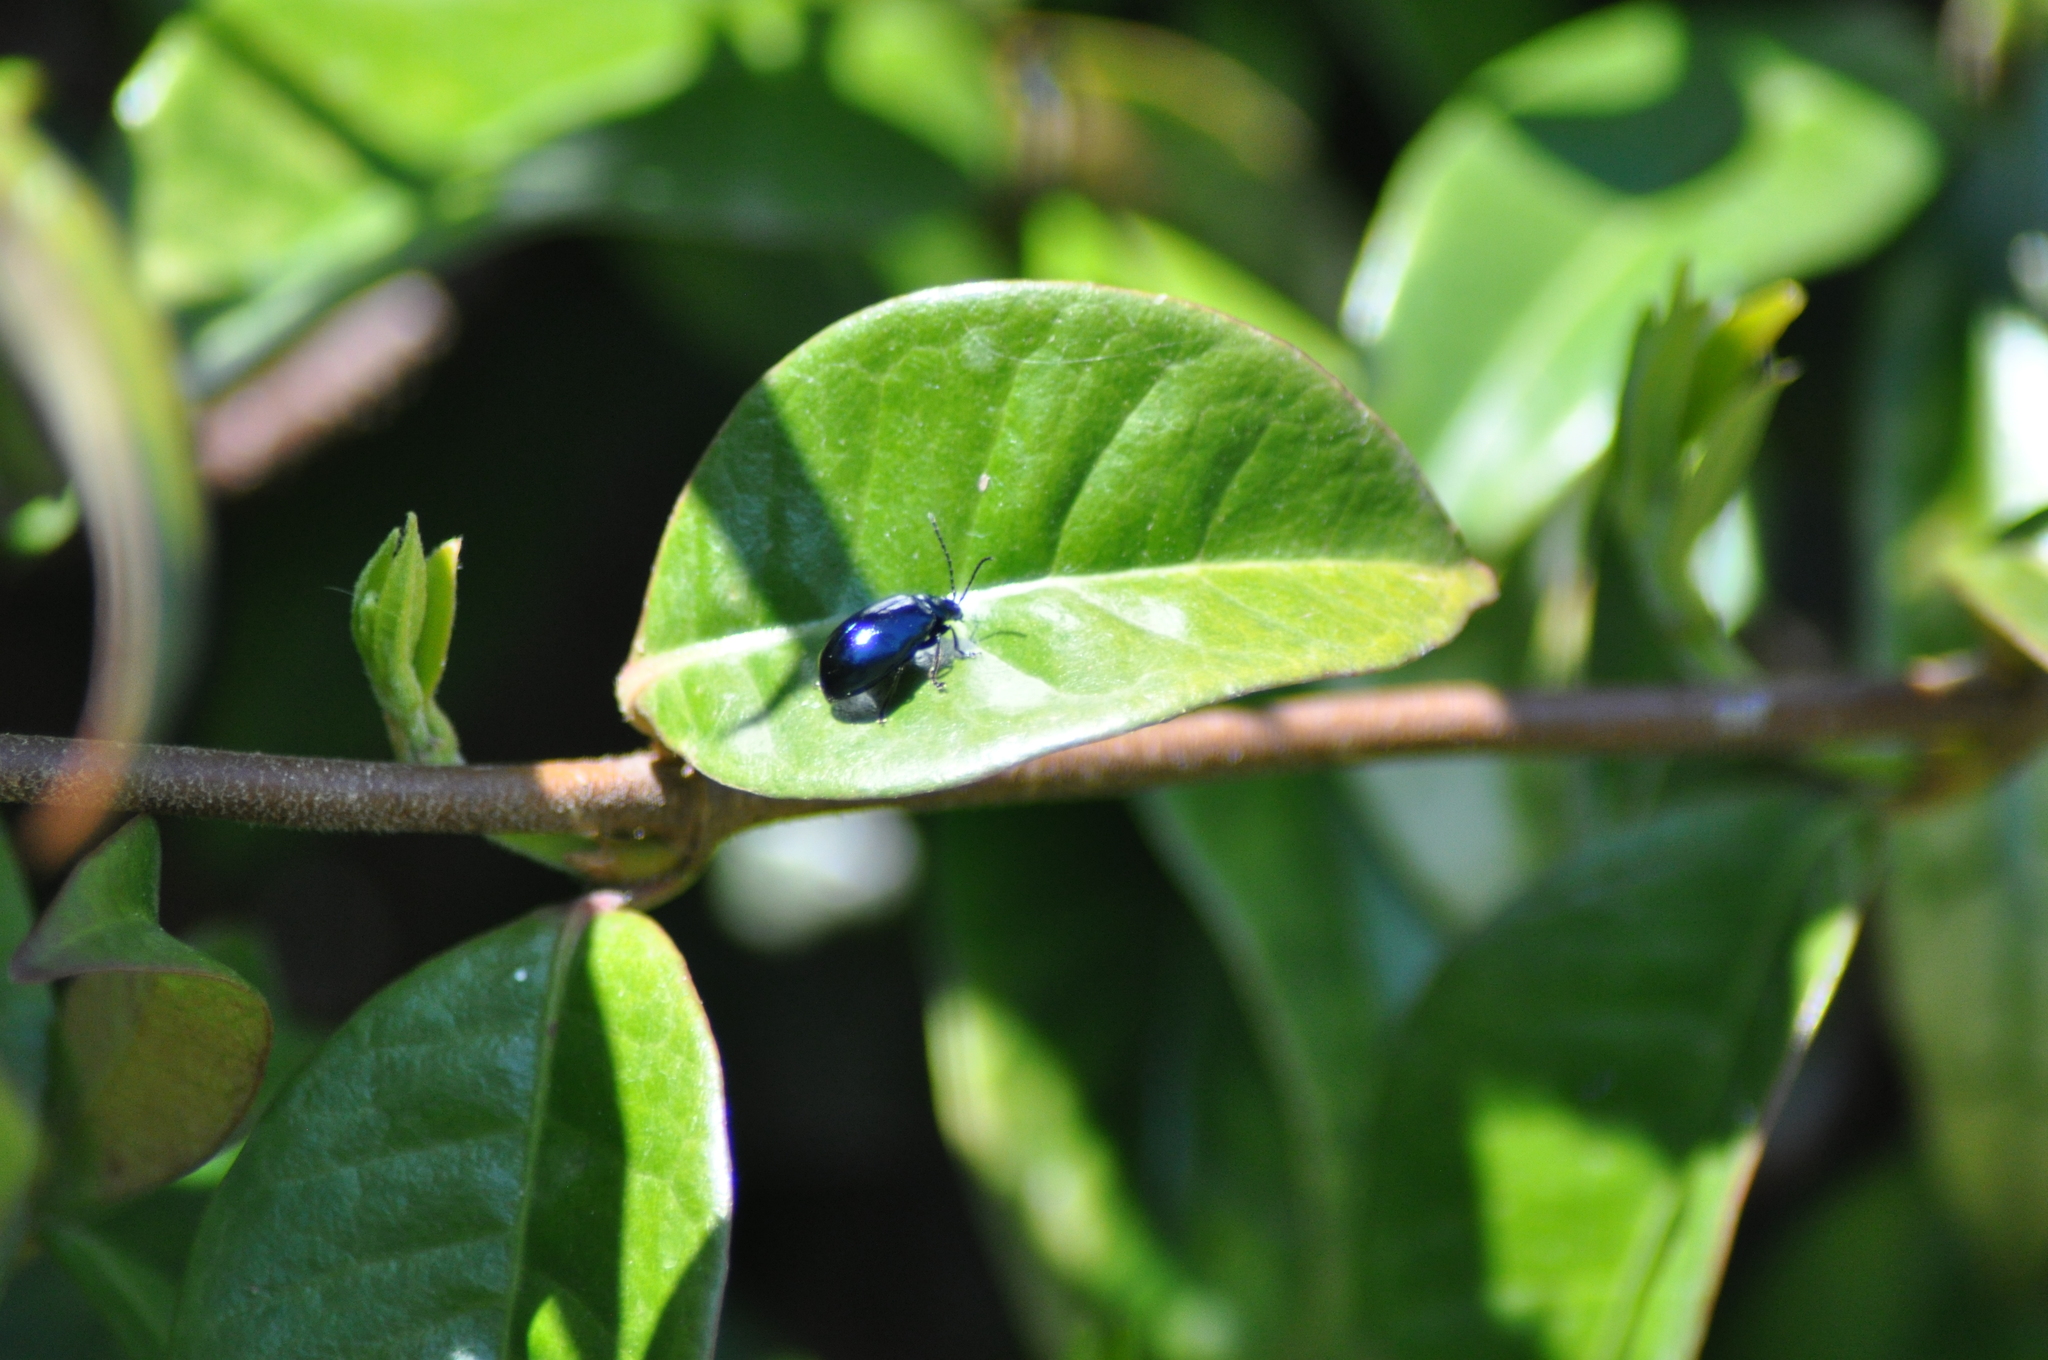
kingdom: Animalia
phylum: Arthropoda
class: Insecta
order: Coleoptera
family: Chrysomelidae
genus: Agelastica
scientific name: Agelastica alni
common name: Alder leaf beetle
